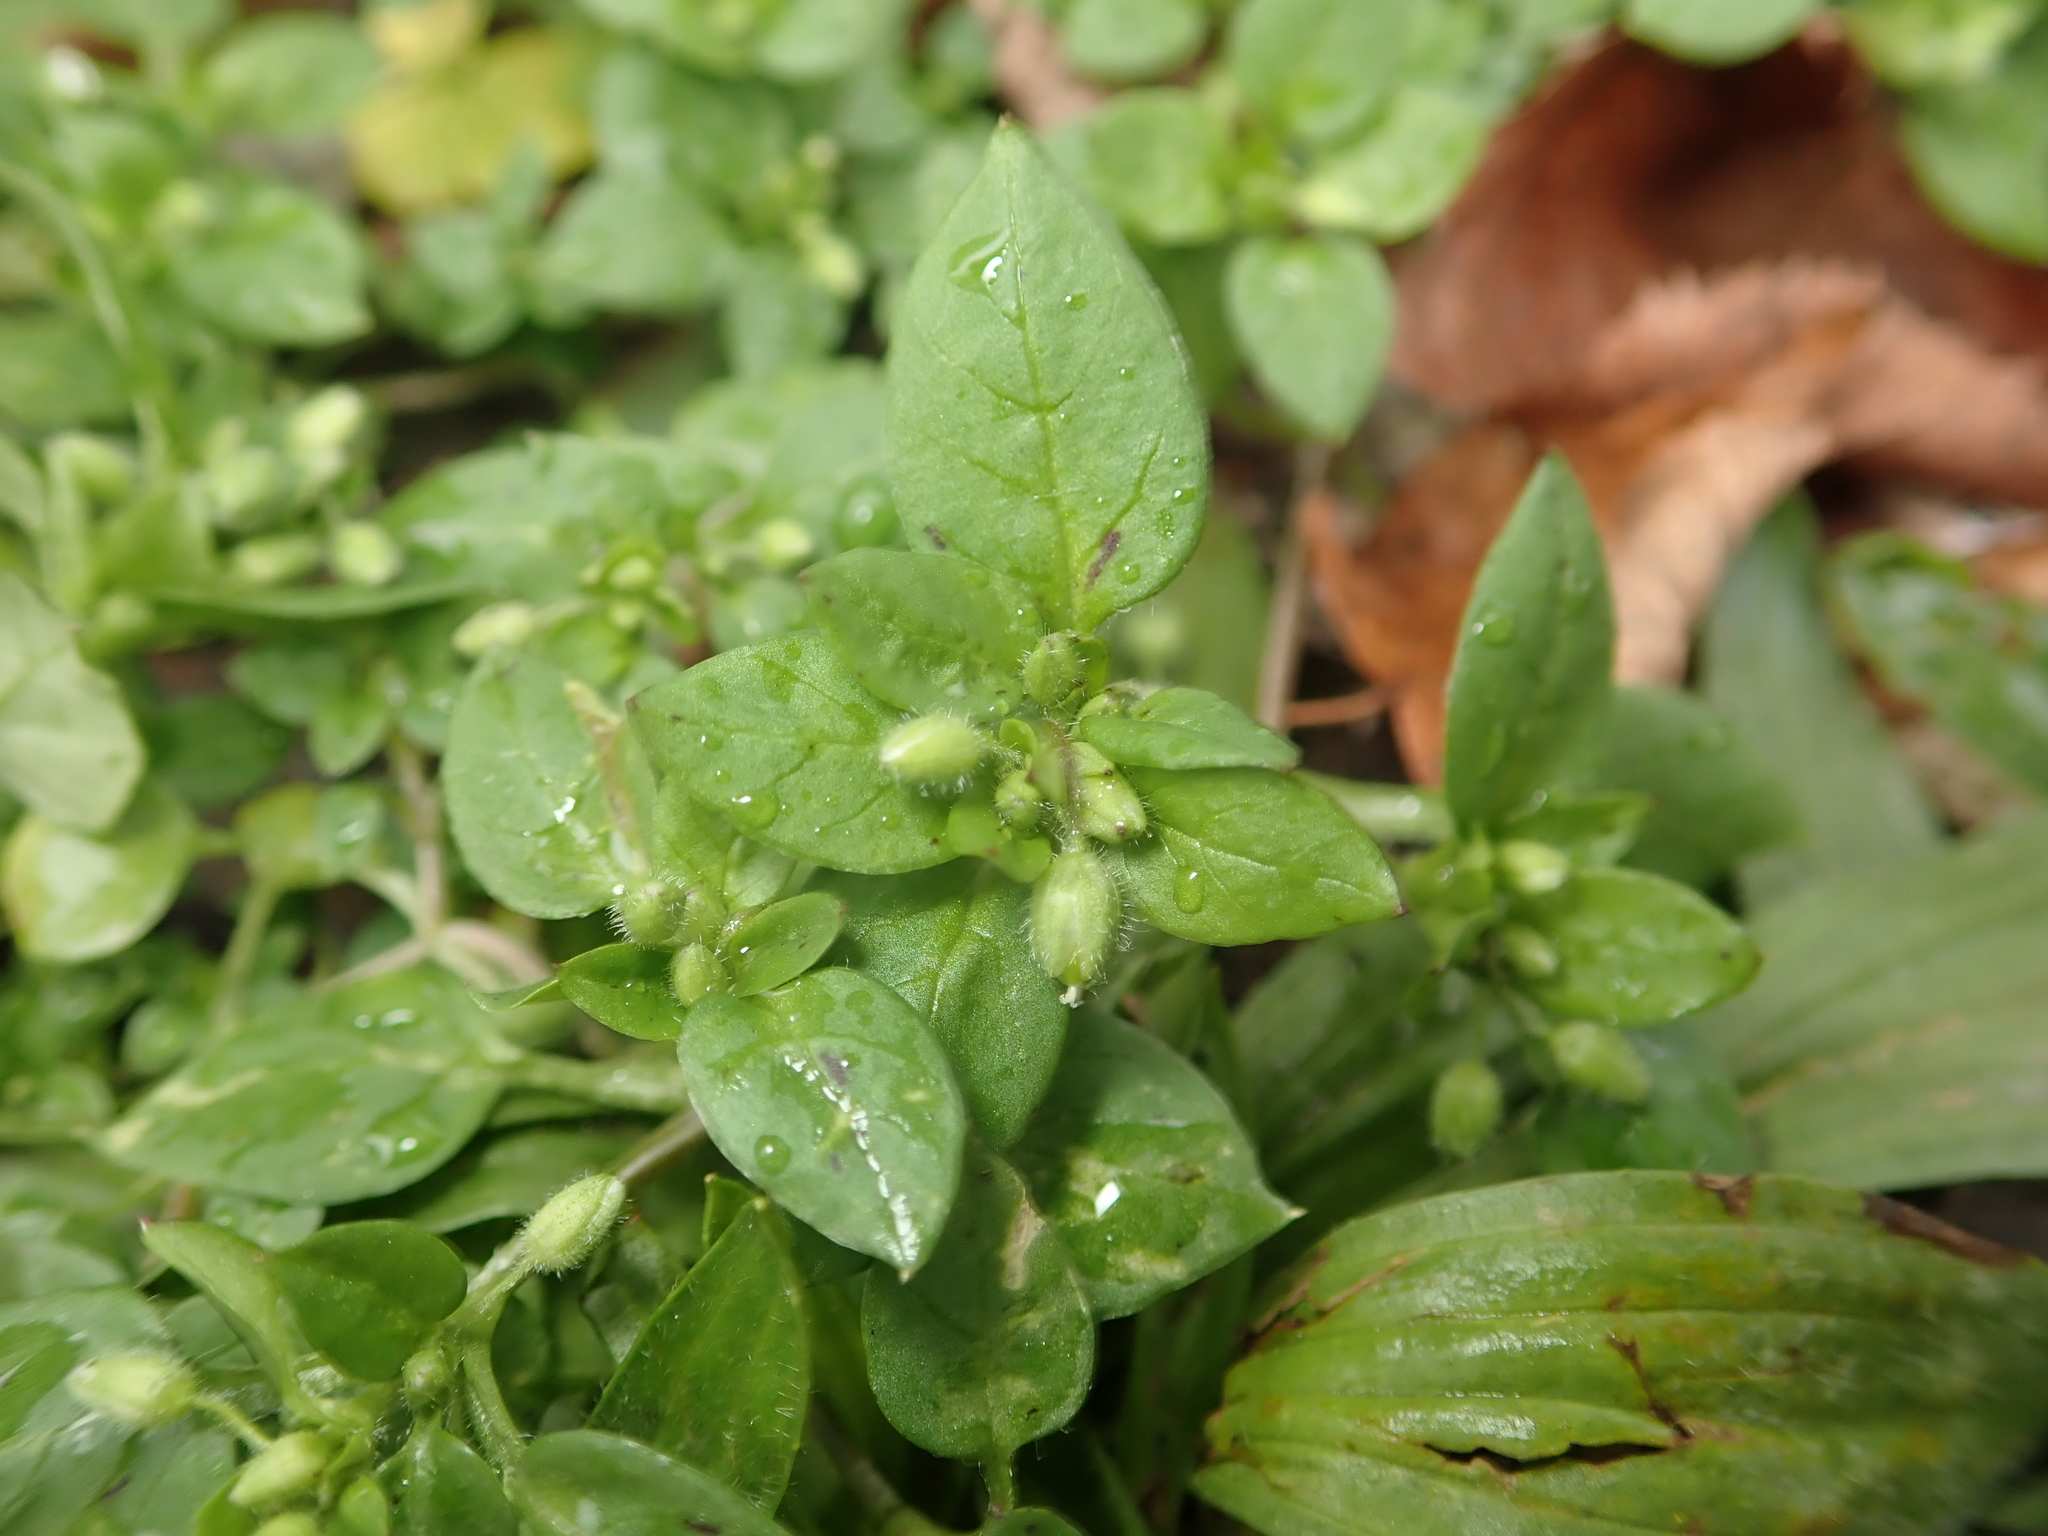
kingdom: Plantae
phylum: Tracheophyta
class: Magnoliopsida
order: Caryophyllales
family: Caryophyllaceae
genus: Stellaria
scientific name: Stellaria media
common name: Common chickweed
